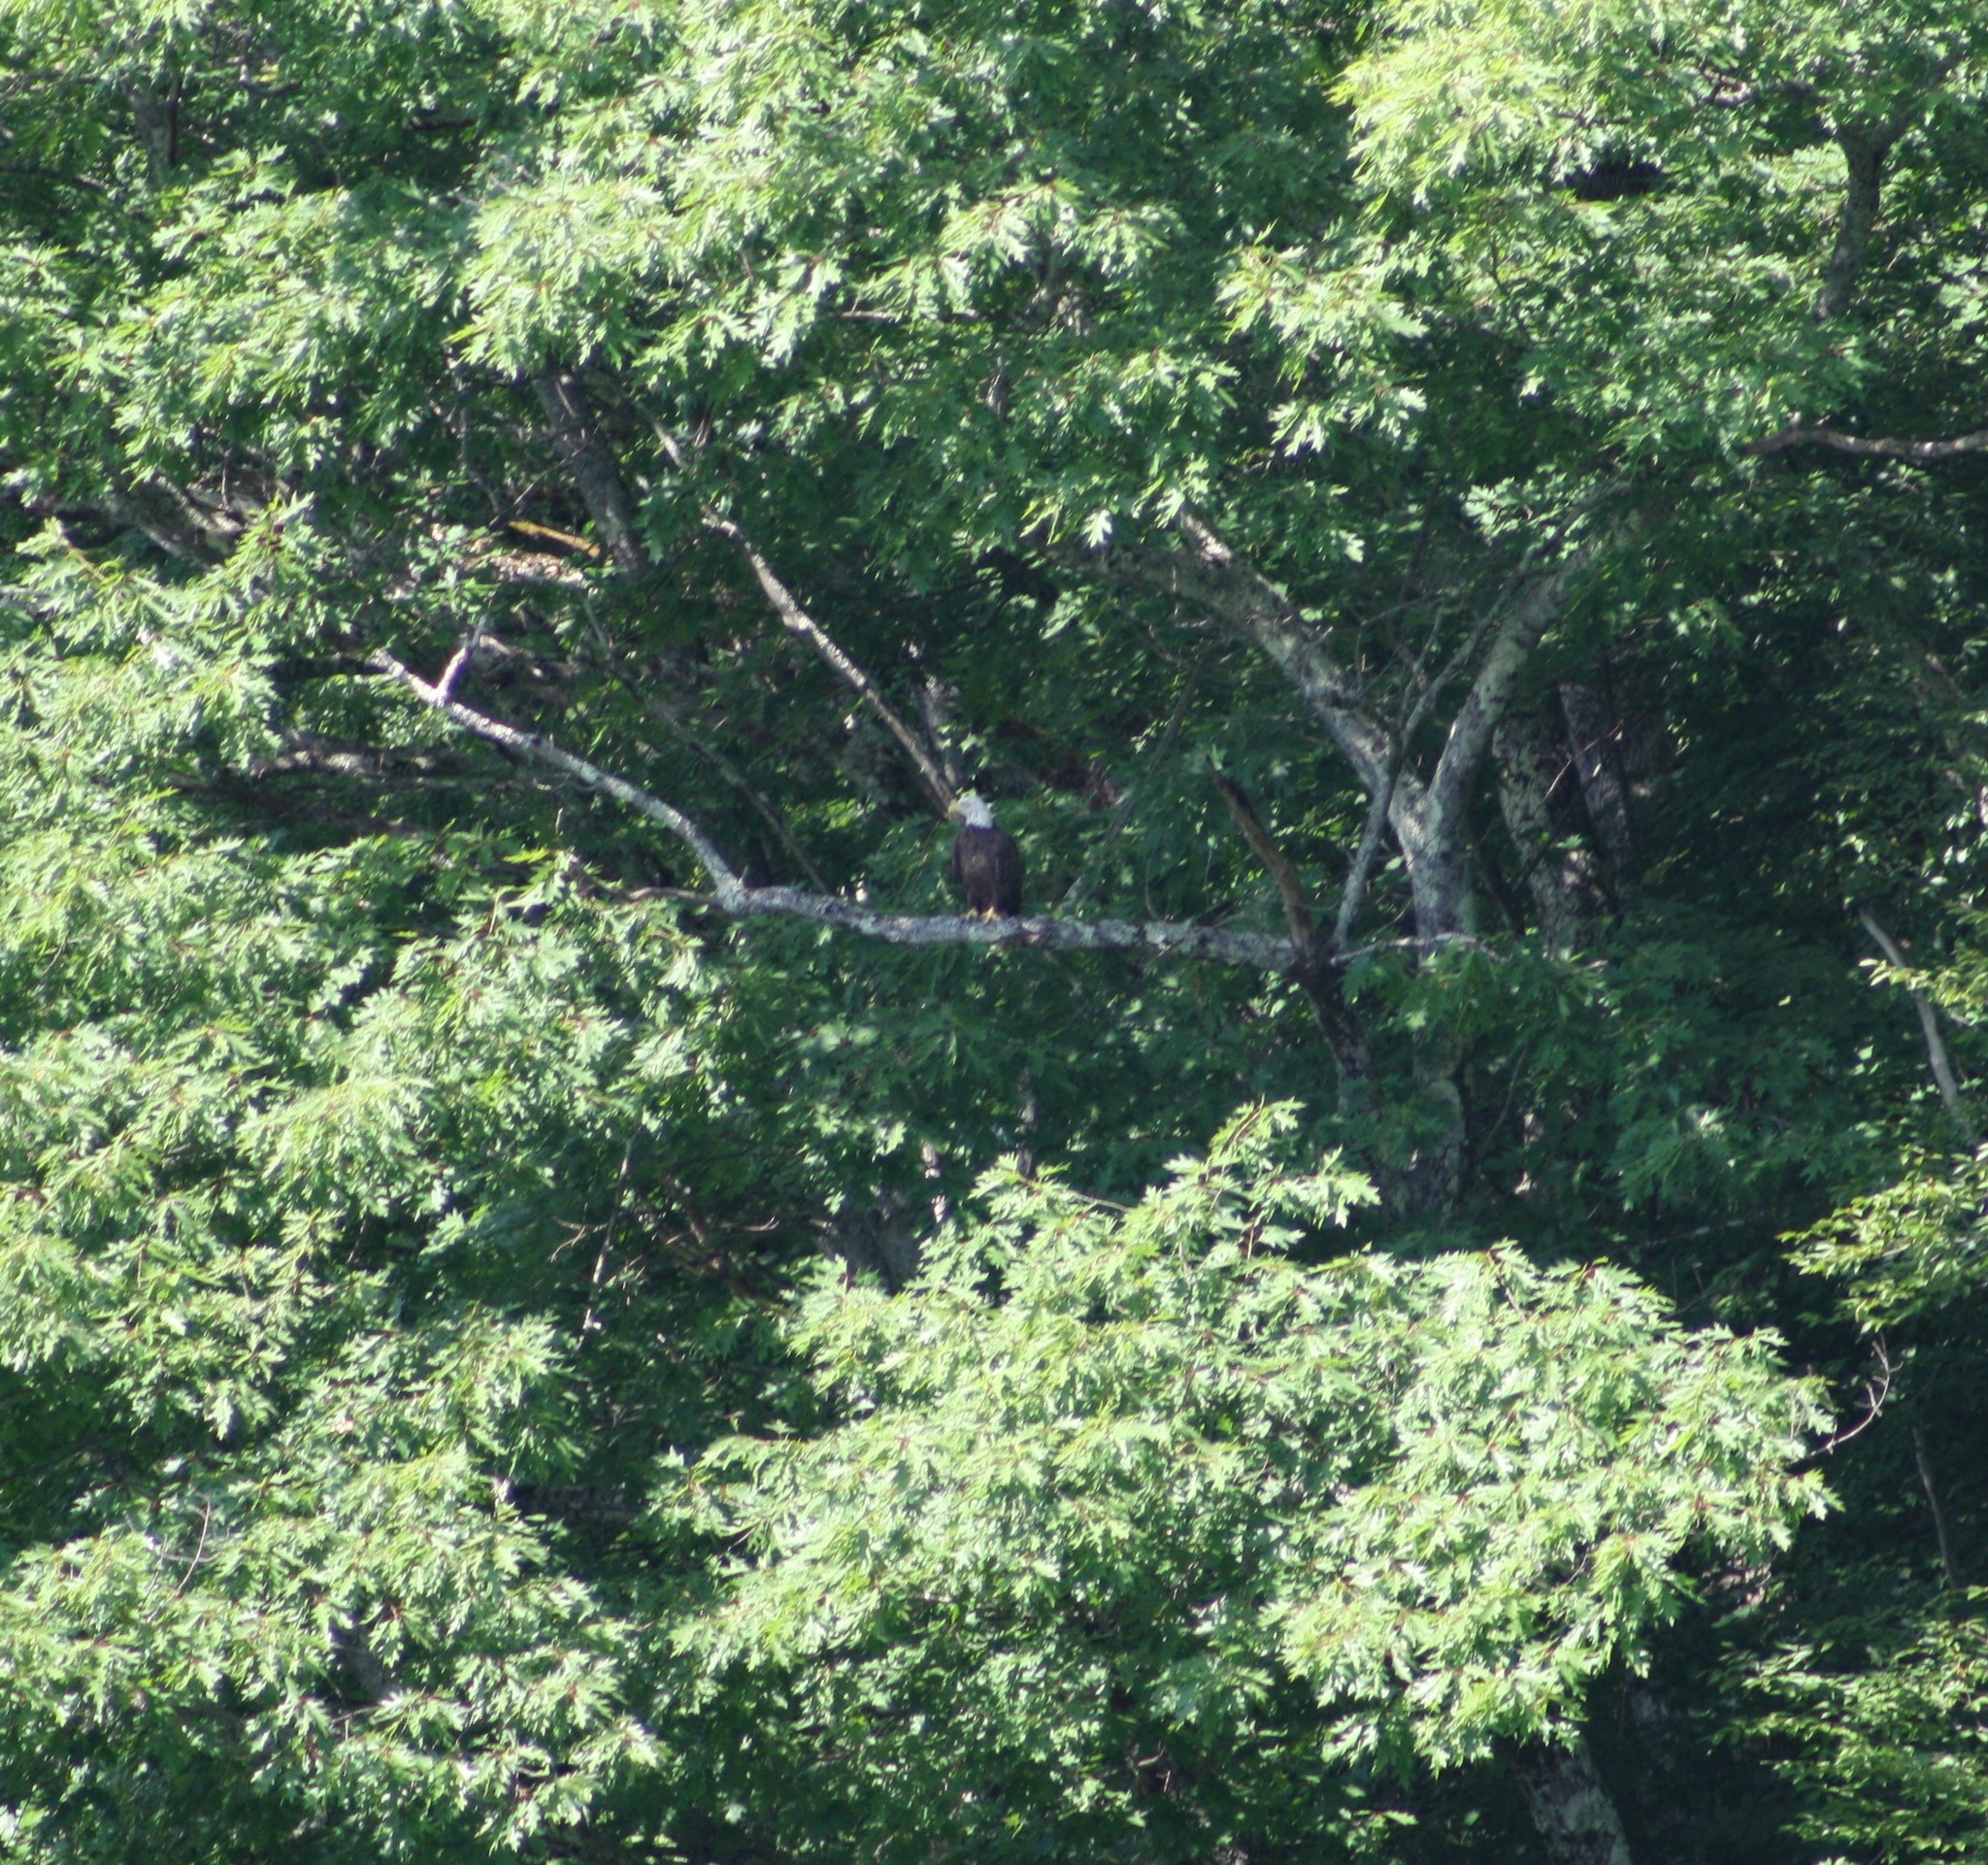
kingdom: Animalia
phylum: Chordata
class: Aves
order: Accipitriformes
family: Accipitridae
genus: Haliaeetus
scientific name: Haliaeetus leucocephalus
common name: Bald eagle
